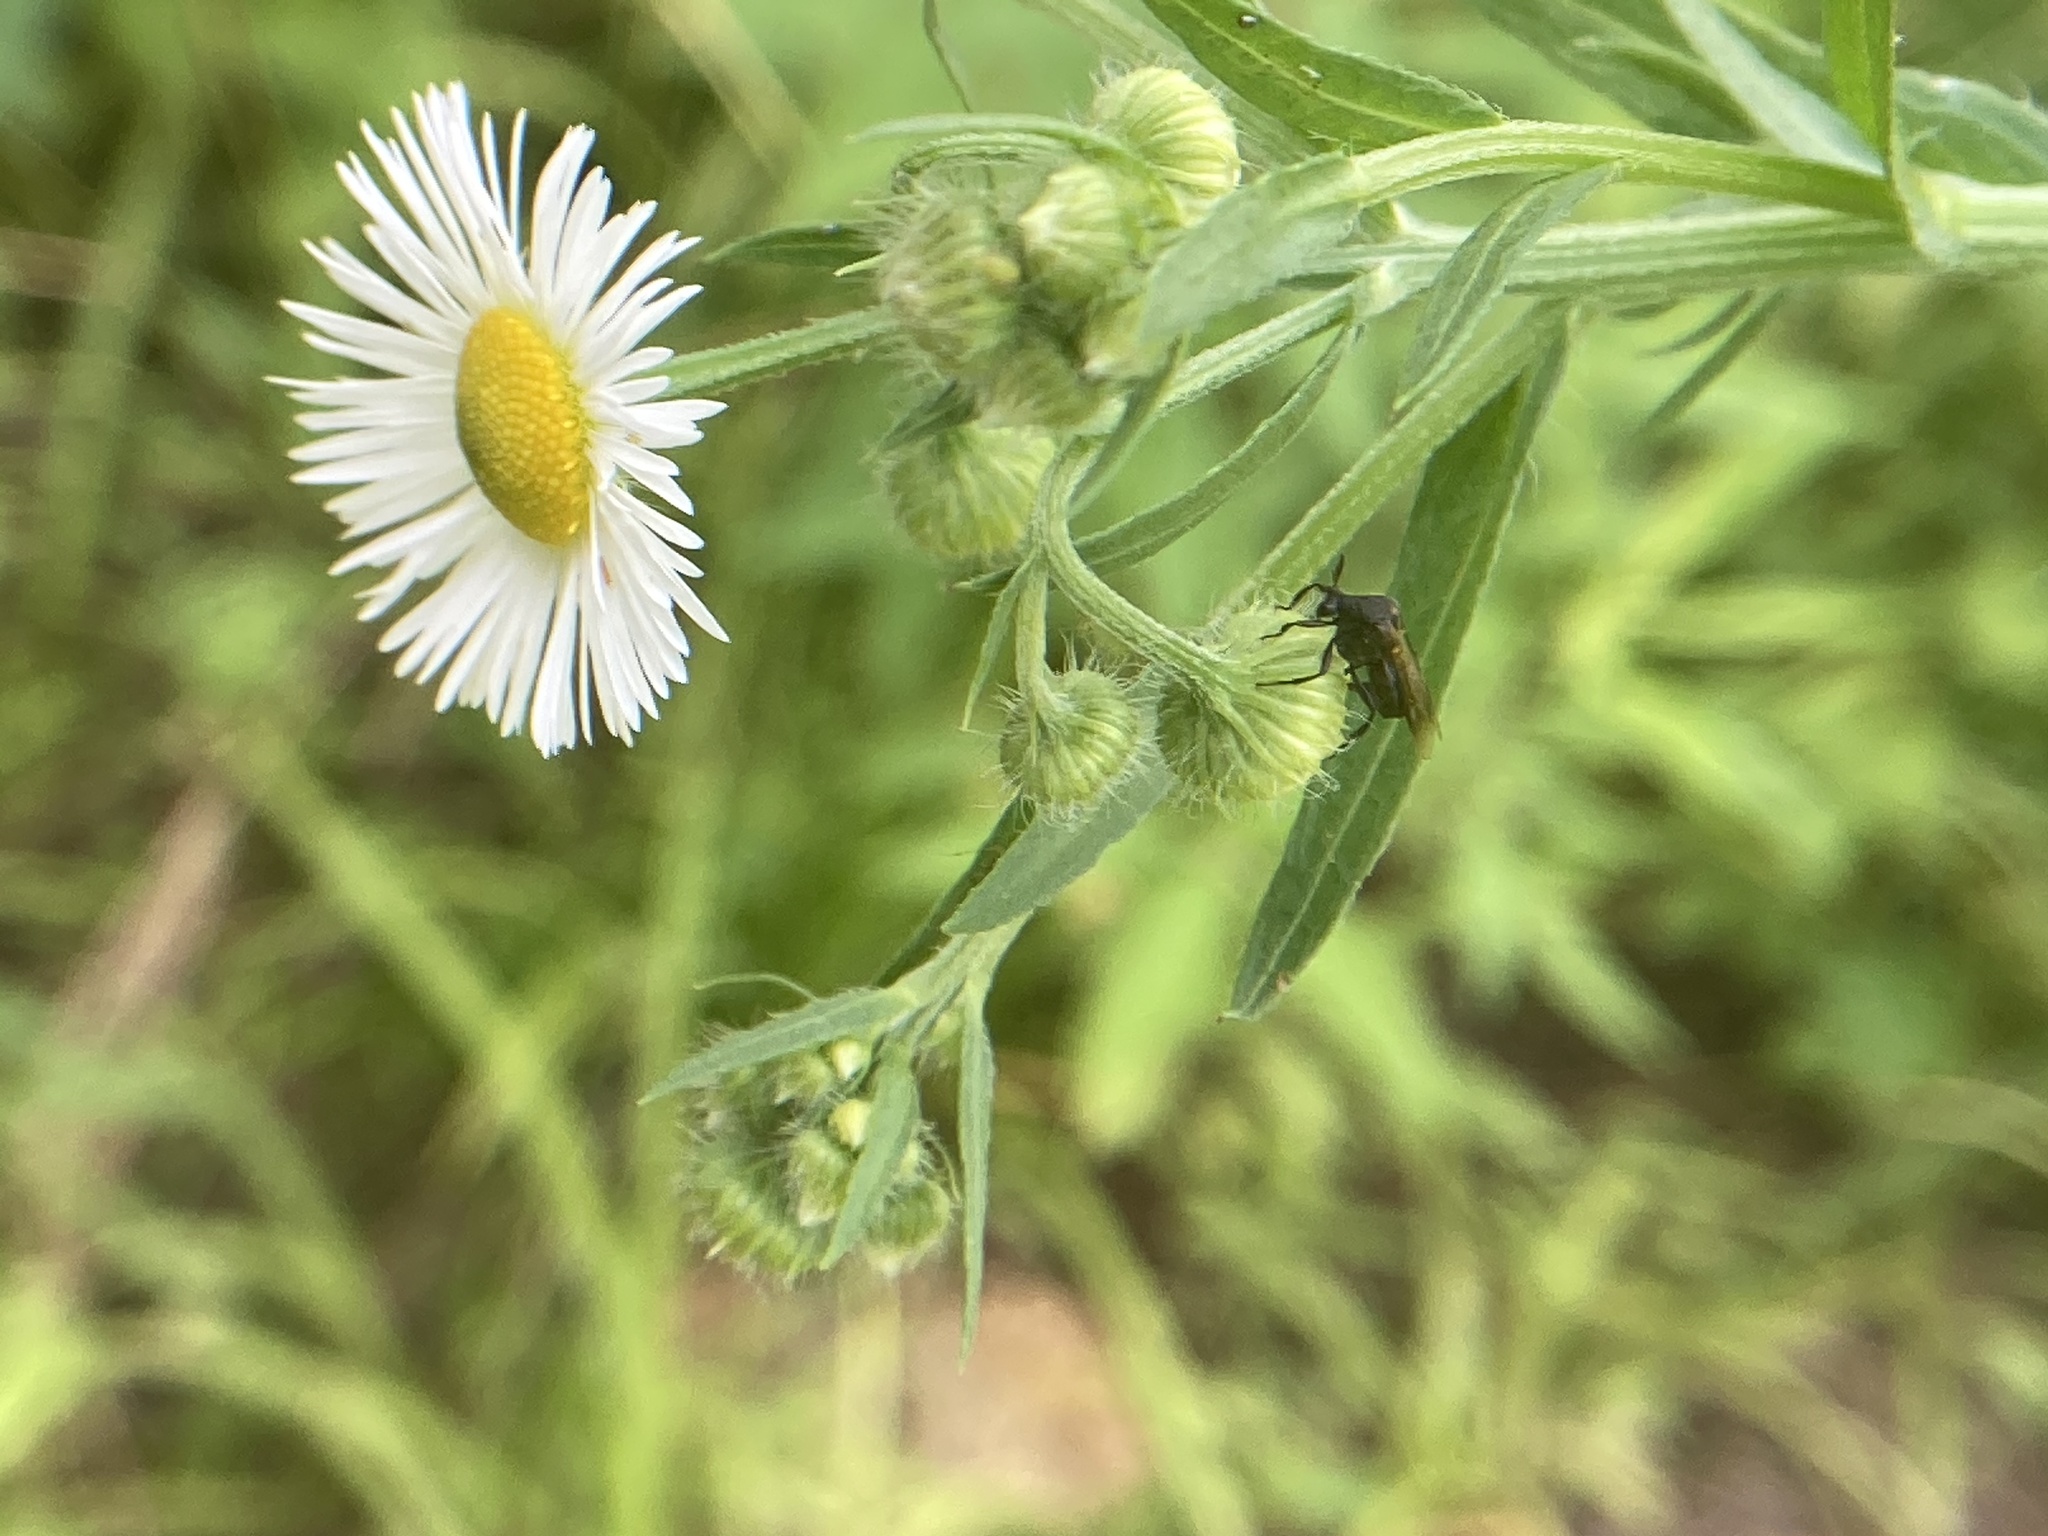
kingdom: Animalia
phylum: Arthropoda
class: Insecta
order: Coleoptera
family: Ripiphoridae
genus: Ripiphorus
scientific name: Ripiphorus
